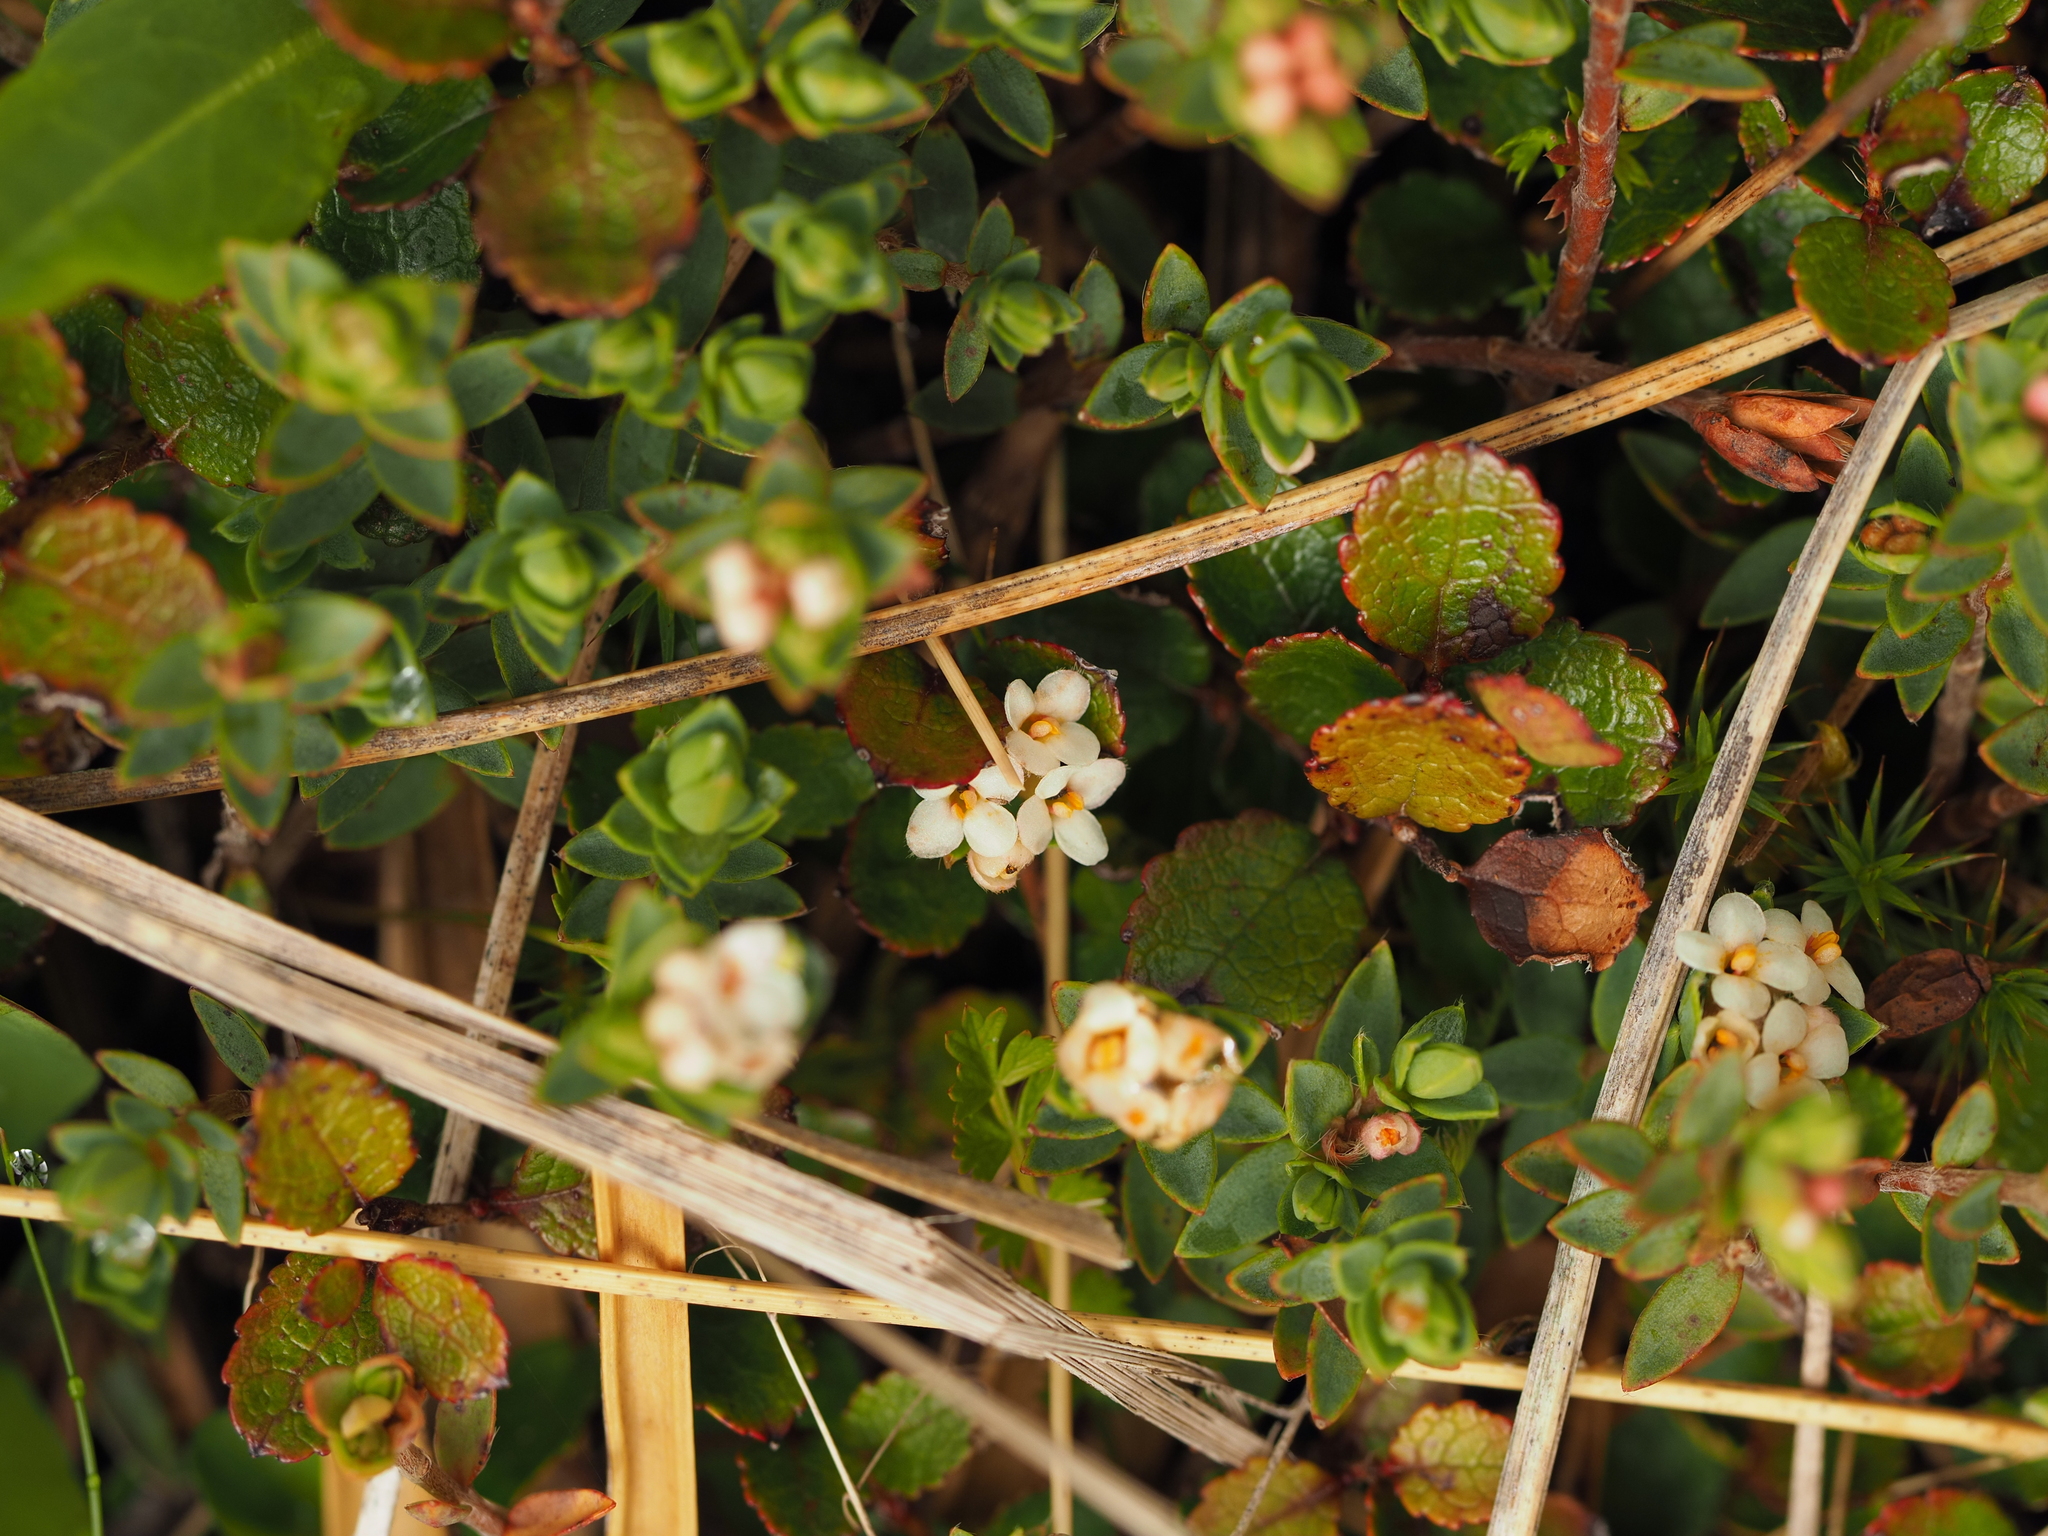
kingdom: Plantae
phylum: Tracheophyta
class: Magnoliopsida
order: Ericales
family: Ericaceae
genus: Gaultheria
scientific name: Gaultheria depressa
